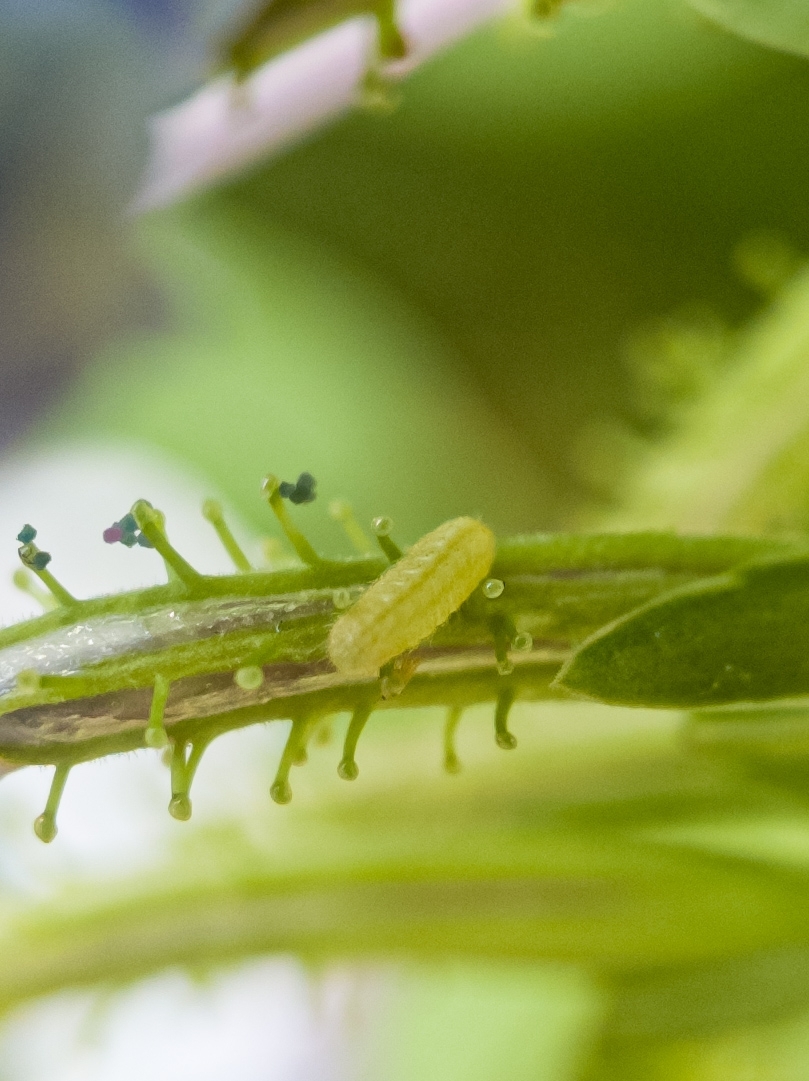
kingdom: Animalia
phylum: Arthropoda
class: Insecta
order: Lepidoptera
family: Lycaenidae
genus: Leptotes
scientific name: Leptotes cassius
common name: Cassius blue
